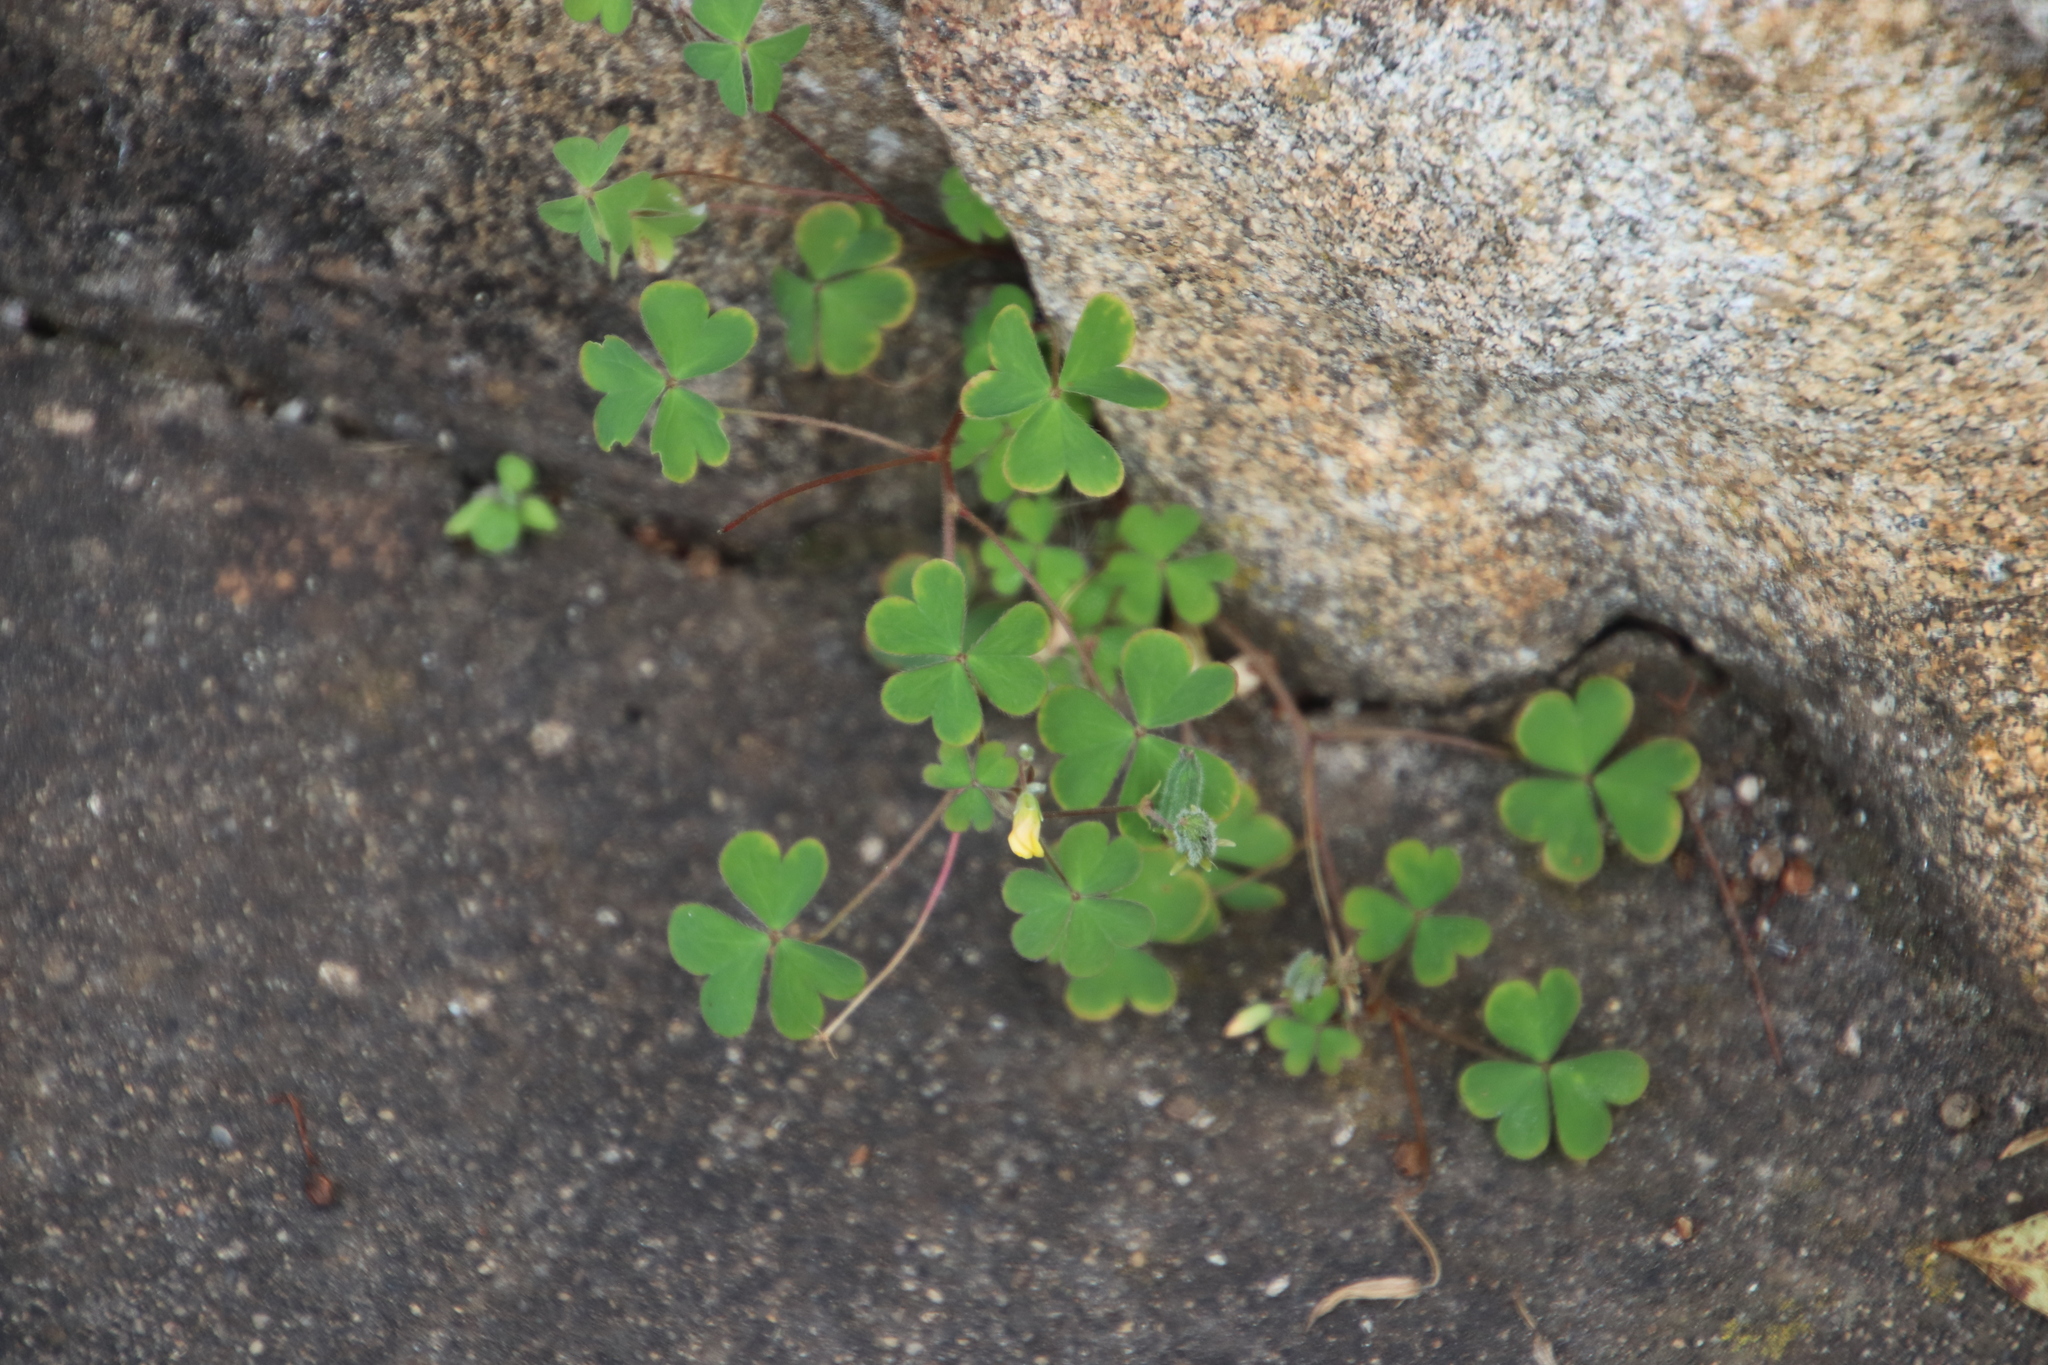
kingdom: Plantae
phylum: Tracheophyta
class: Magnoliopsida
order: Oxalidales
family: Oxalidaceae
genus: Oxalis
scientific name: Oxalis corniculata
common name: Procumbent yellow-sorrel
